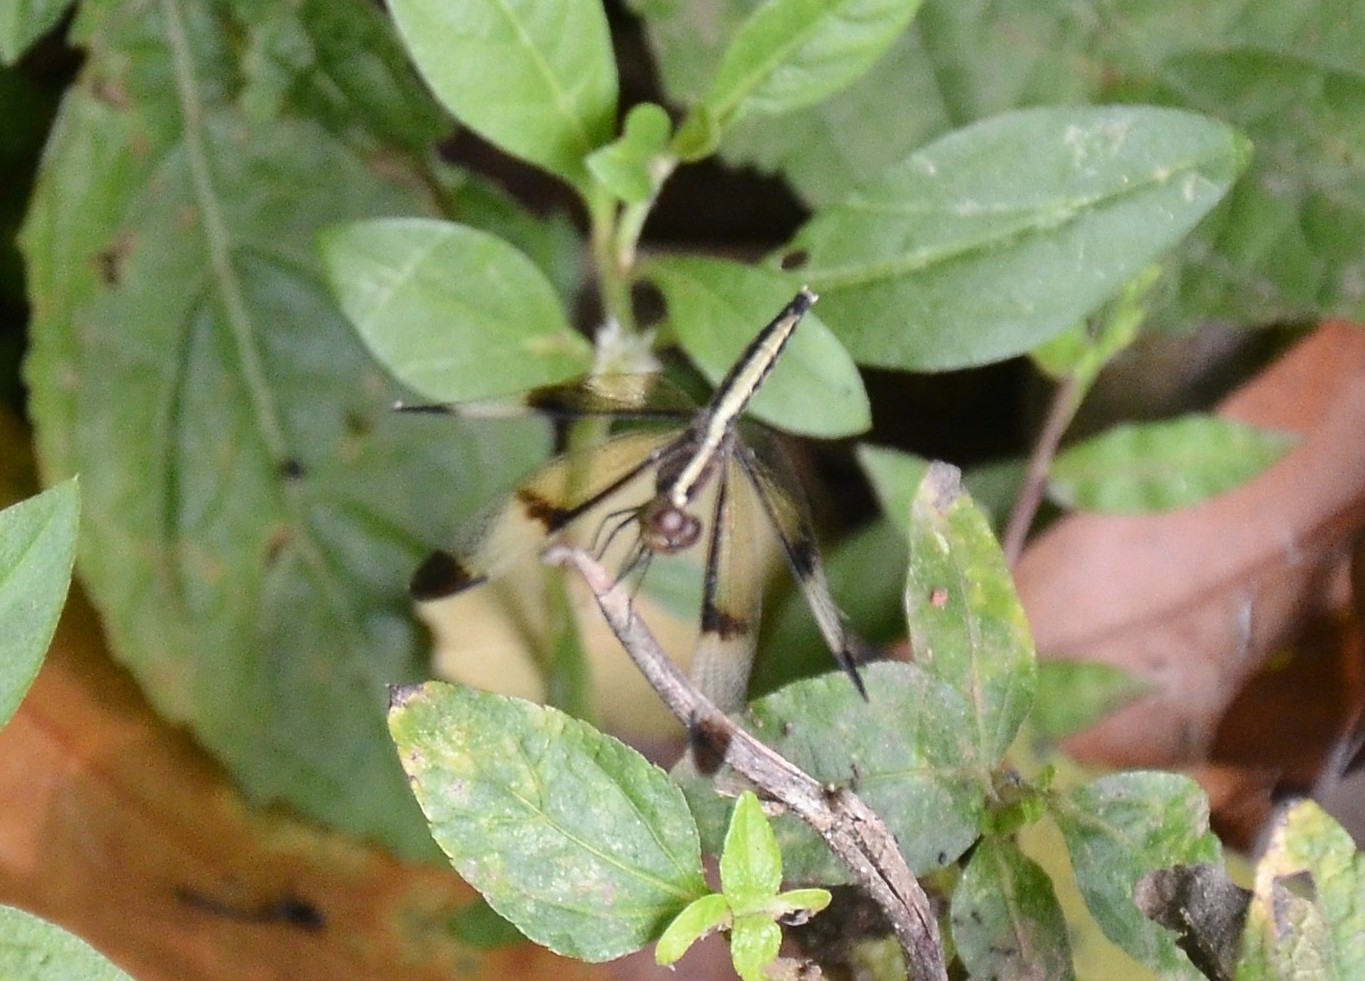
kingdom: Animalia
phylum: Arthropoda
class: Insecta
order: Odonata
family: Libellulidae
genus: Neurothemis
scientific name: Neurothemis tullia
